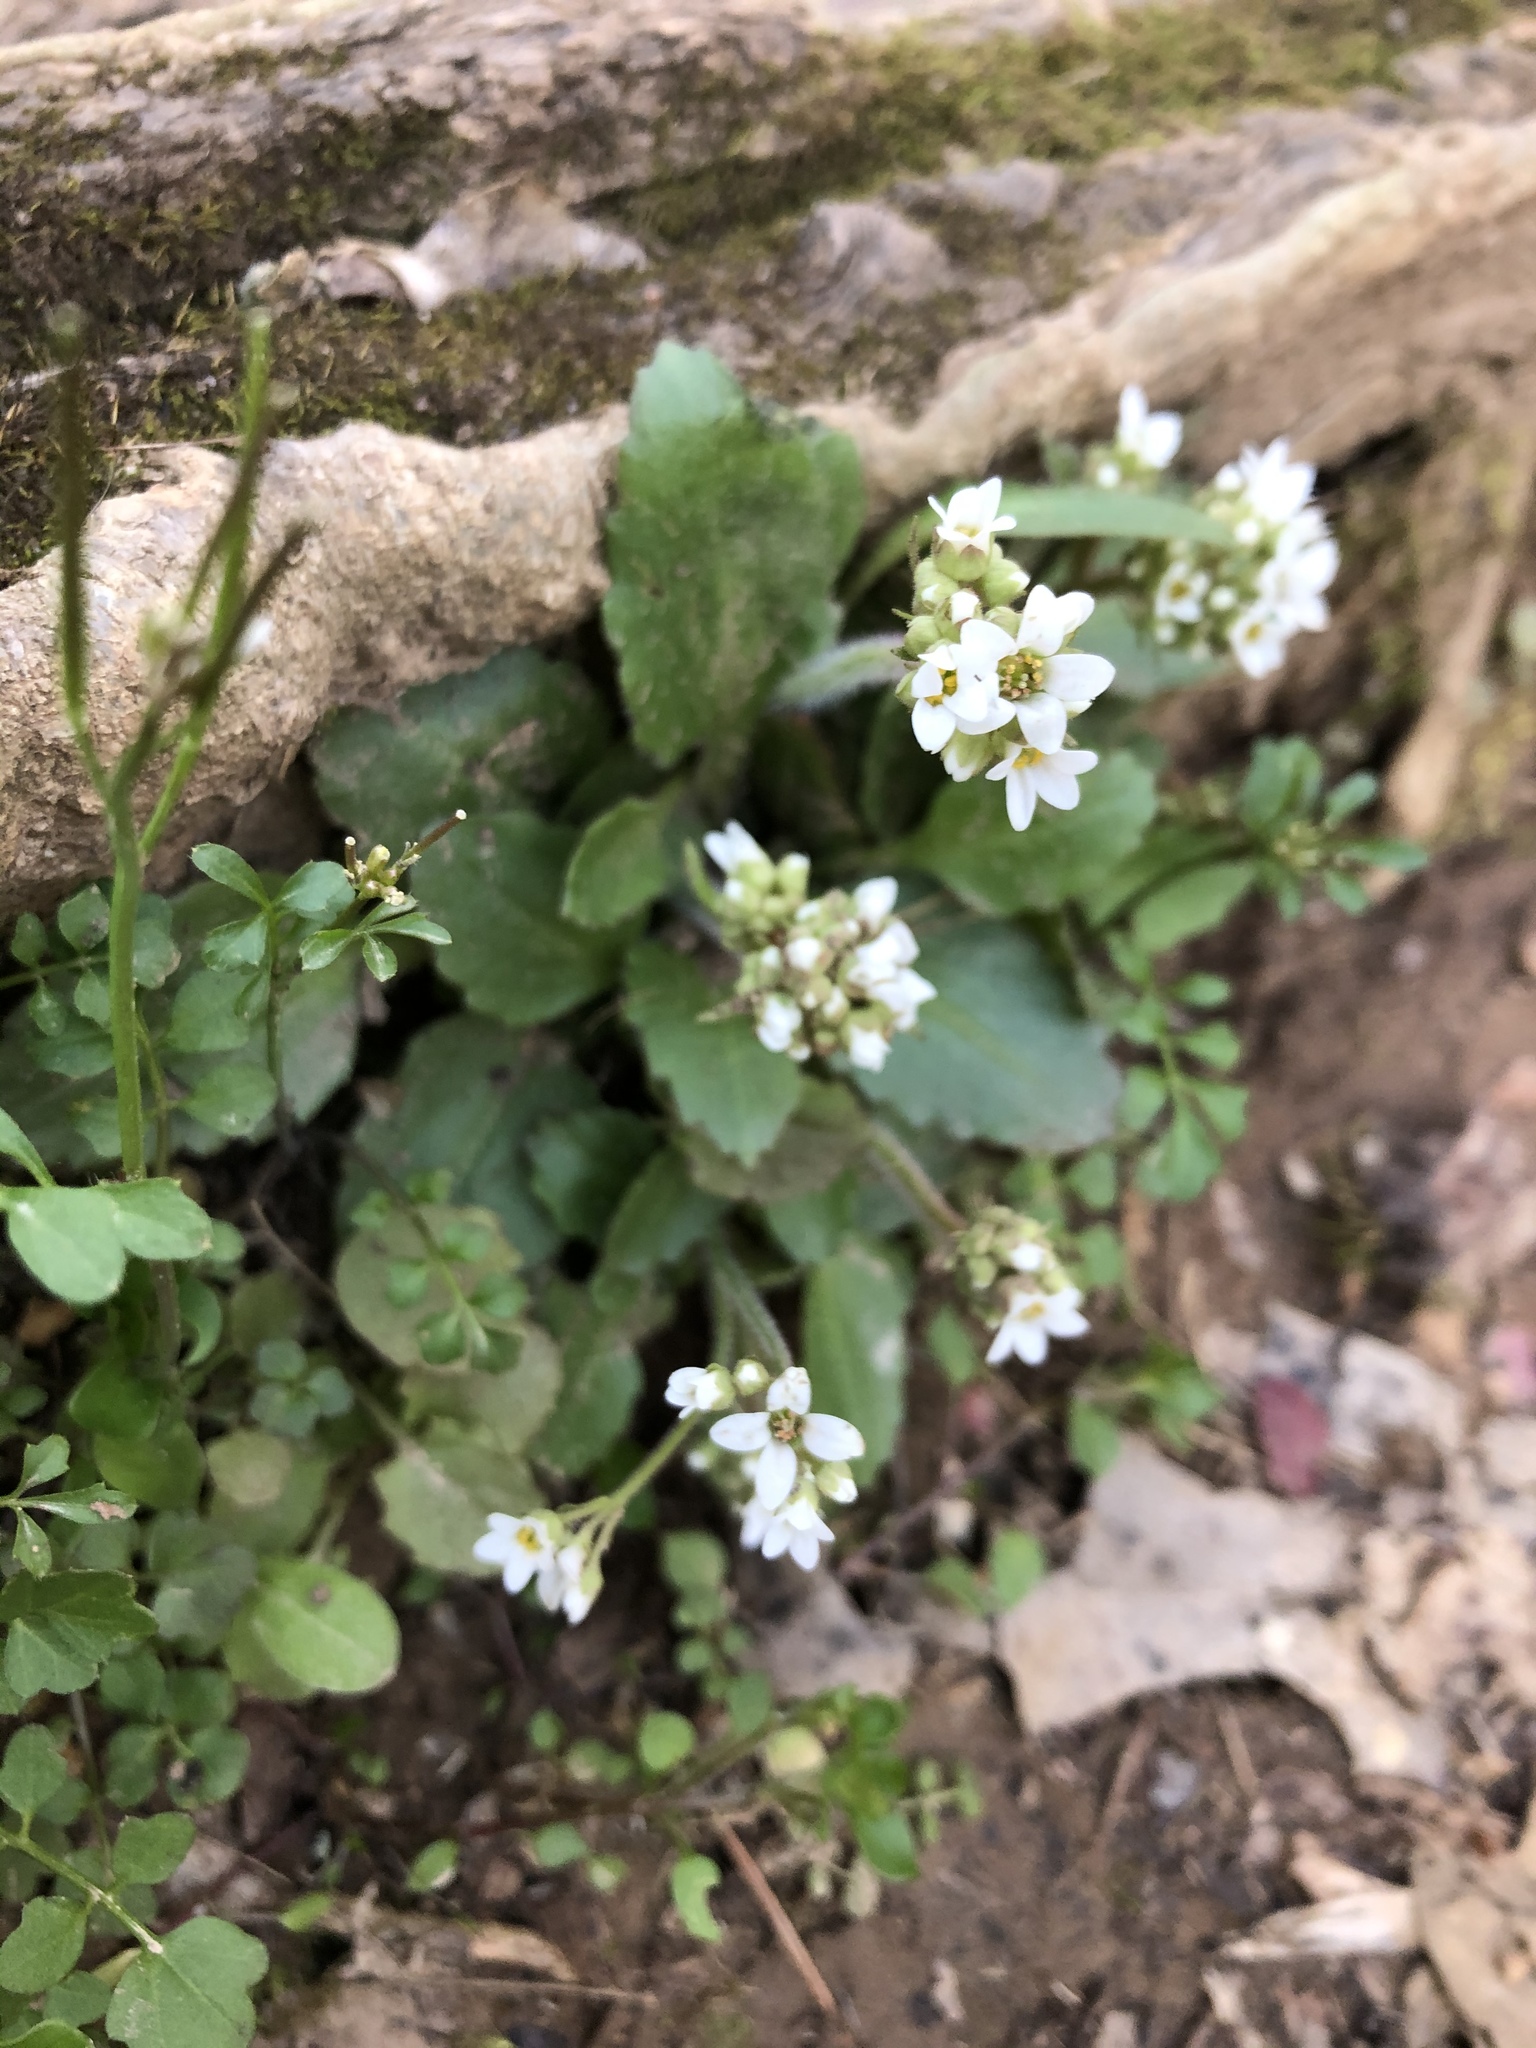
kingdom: Plantae
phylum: Tracheophyta
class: Magnoliopsida
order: Saxifragales
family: Saxifragaceae
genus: Micranthes
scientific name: Micranthes virginiensis
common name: Early saxifrage
